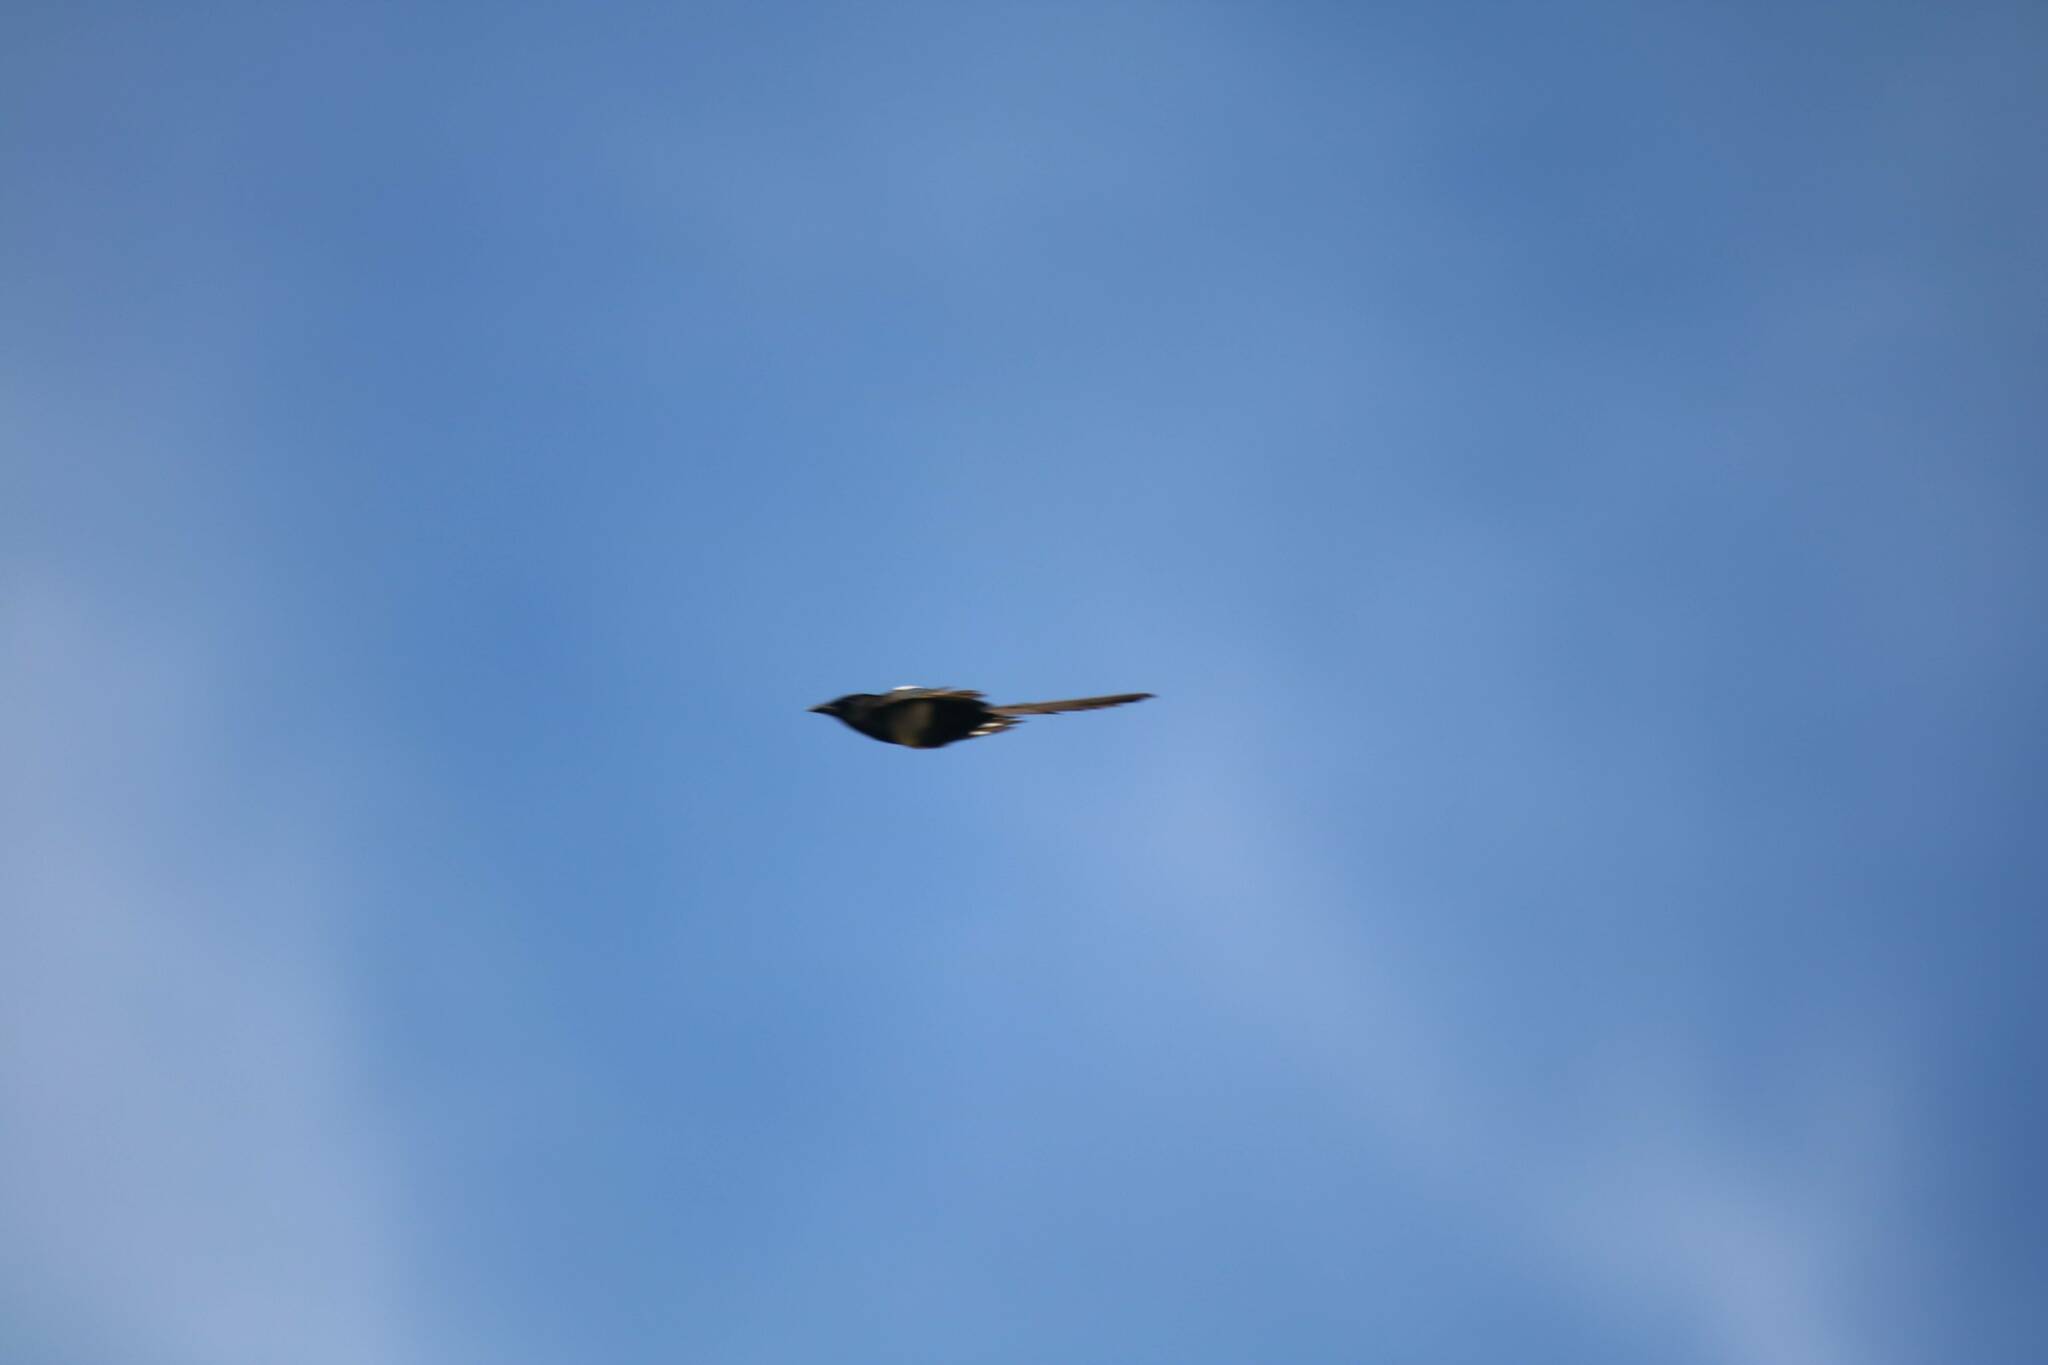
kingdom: Animalia
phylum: Chordata
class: Aves
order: Passeriformes
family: Corvidae
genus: Pica
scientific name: Pica mauritanica
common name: Maghreb magpie
